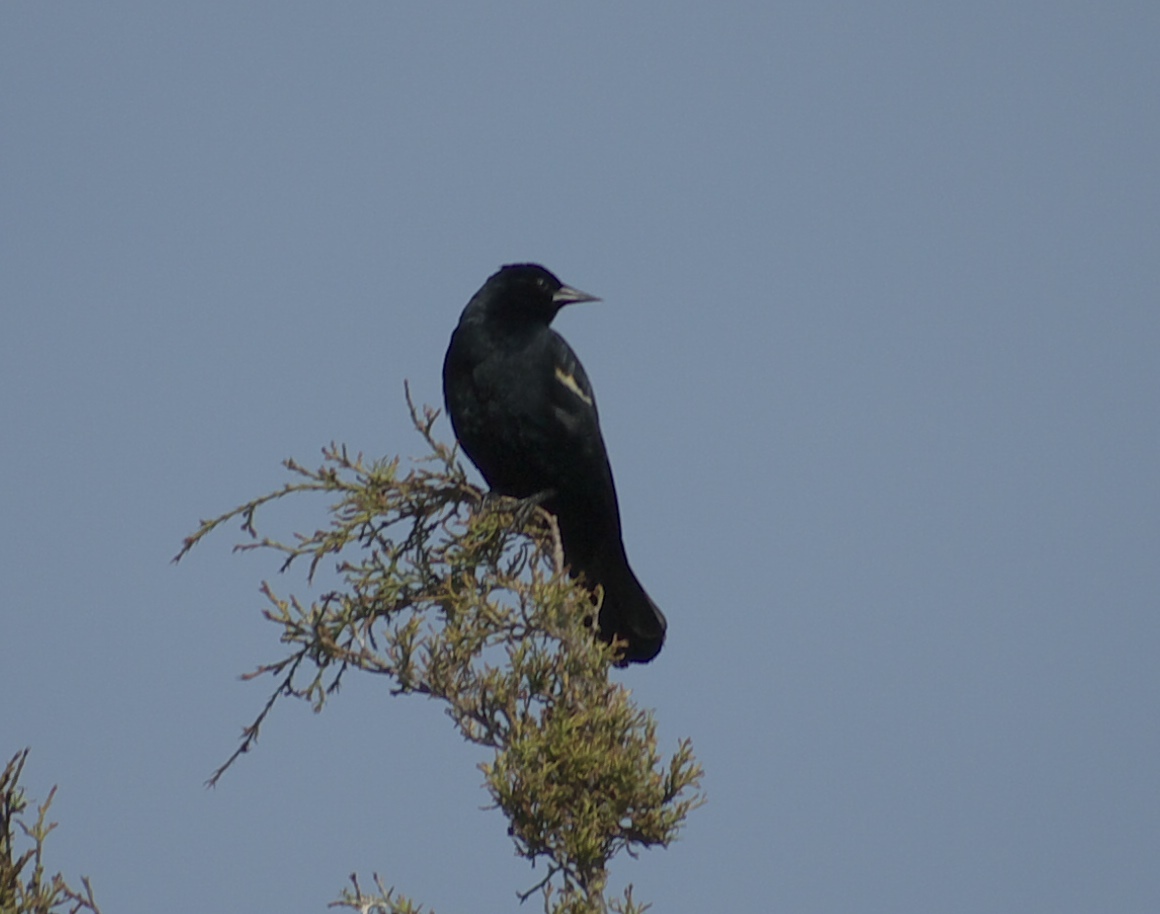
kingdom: Animalia
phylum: Chordata
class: Aves
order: Passeriformes
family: Icteridae
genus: Agelaius
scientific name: Agelaius phoeniceus
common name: Red-winged blackbird
